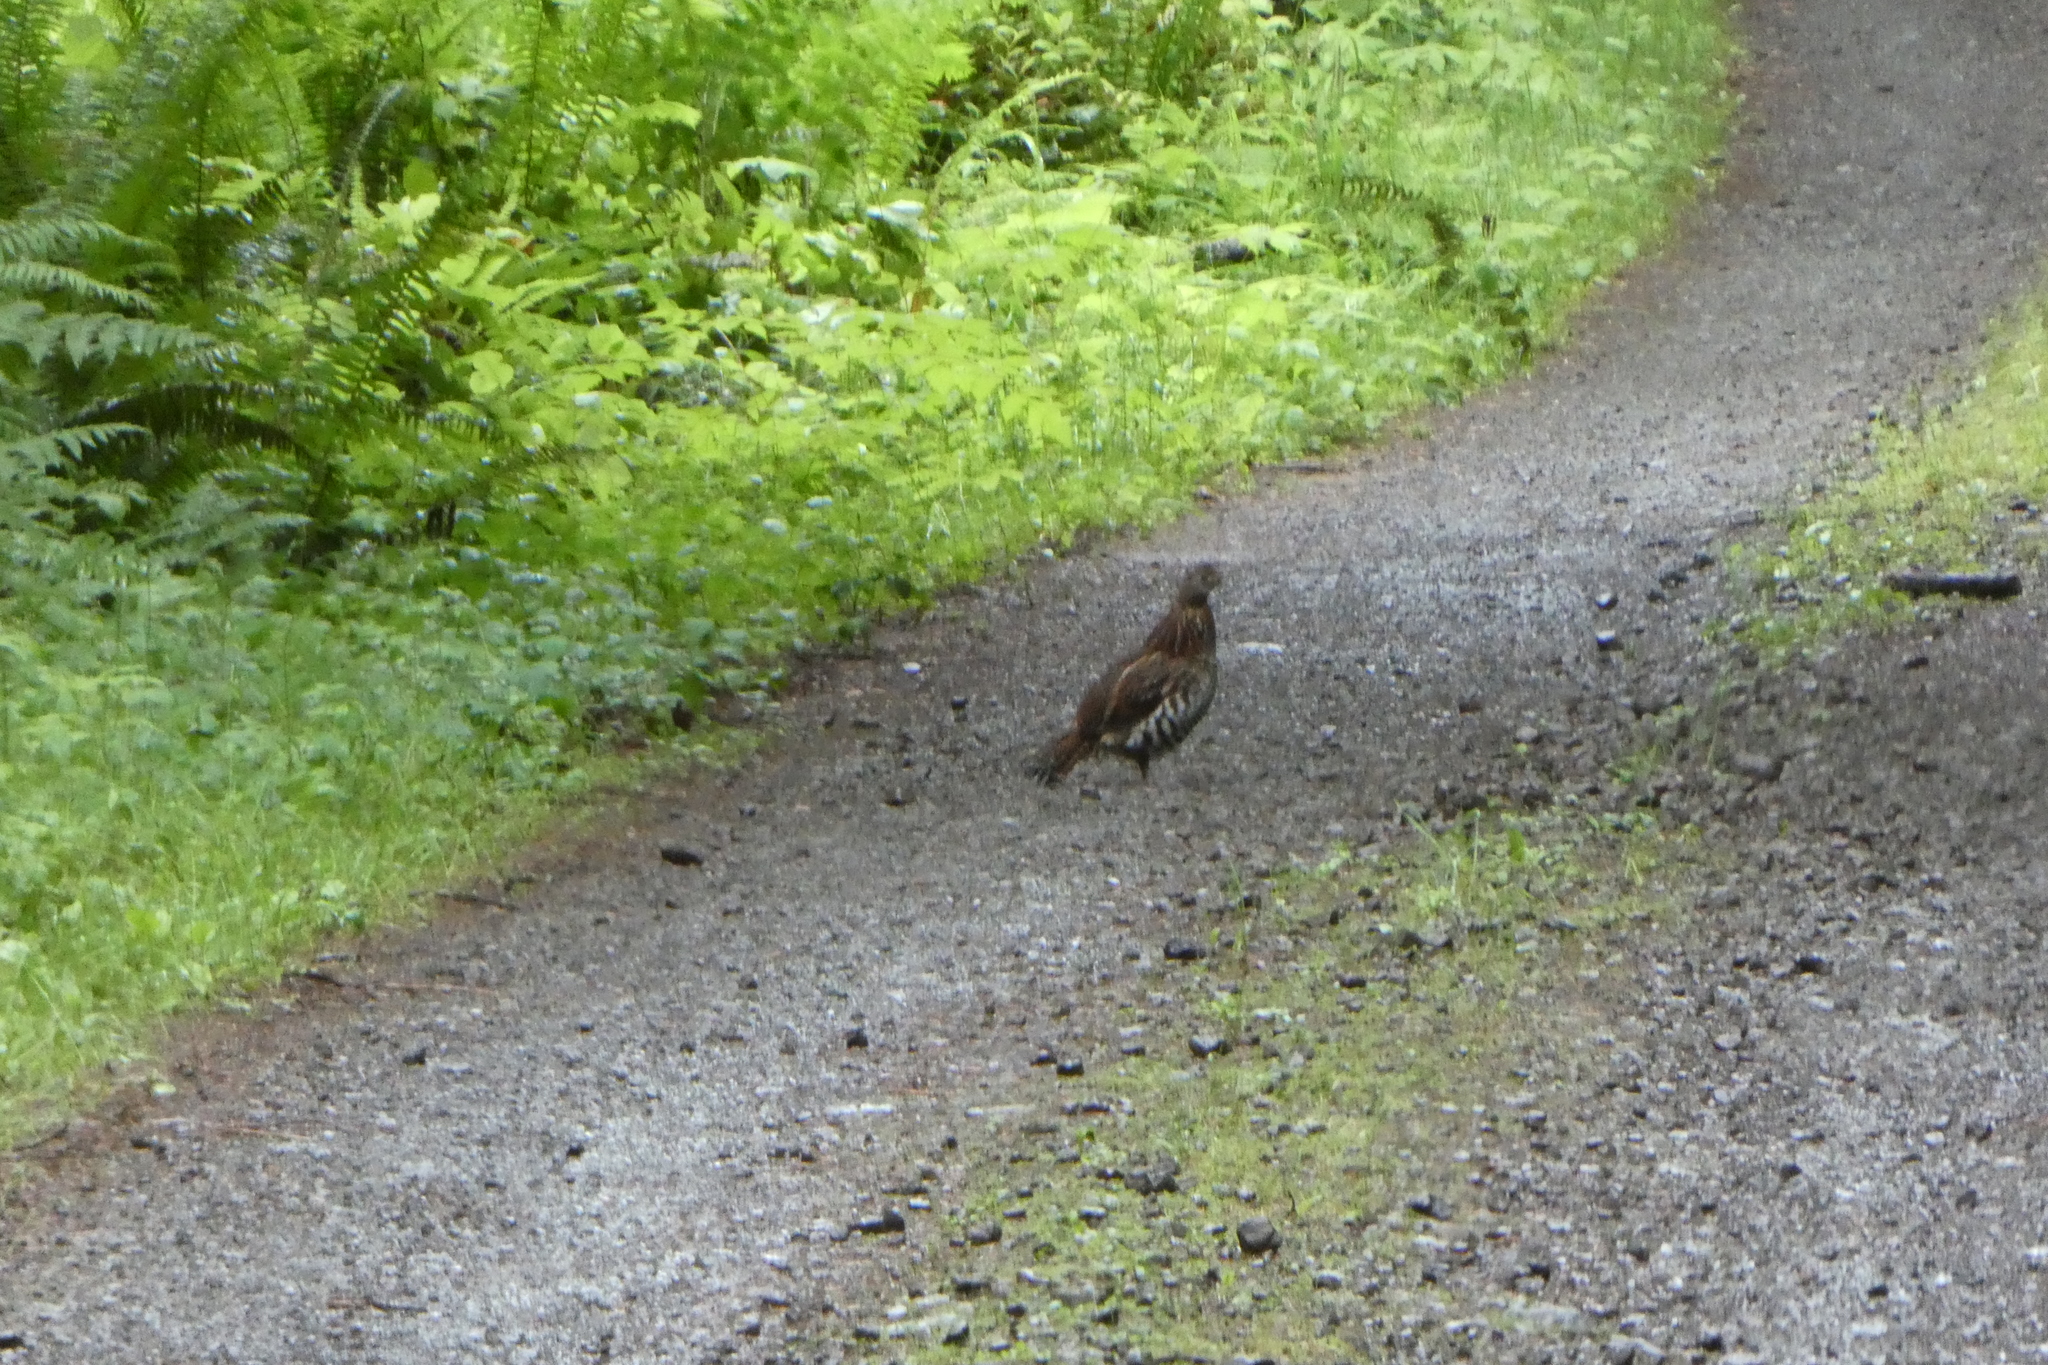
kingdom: Animalia
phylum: Chordata
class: Aves
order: Galliformes
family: Phasianidae
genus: Bonasa
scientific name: Bonasa umbellus
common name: Ruffed grouse
